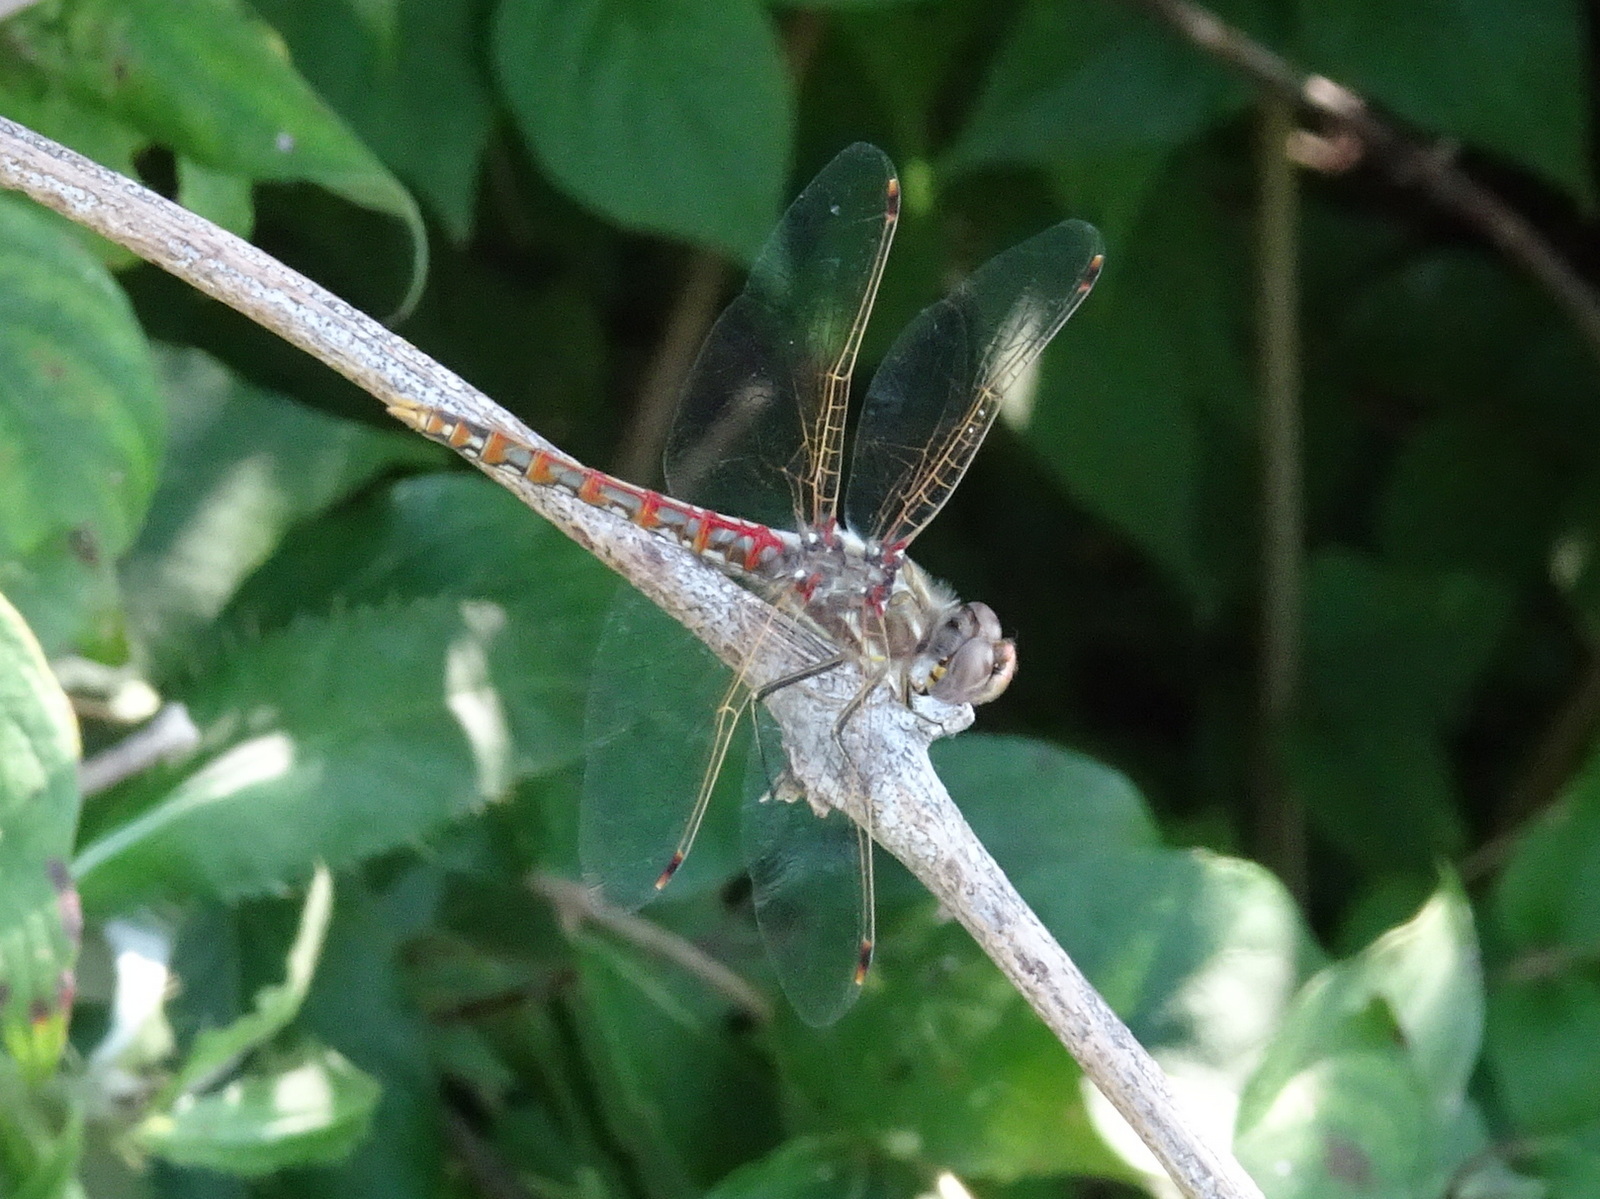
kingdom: Animalia
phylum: Arthropoda
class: Insecta
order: Odonata
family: Libellulidae
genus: Sympetrum
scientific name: Sympetrum corruptum
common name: Variegated meadowhawk
